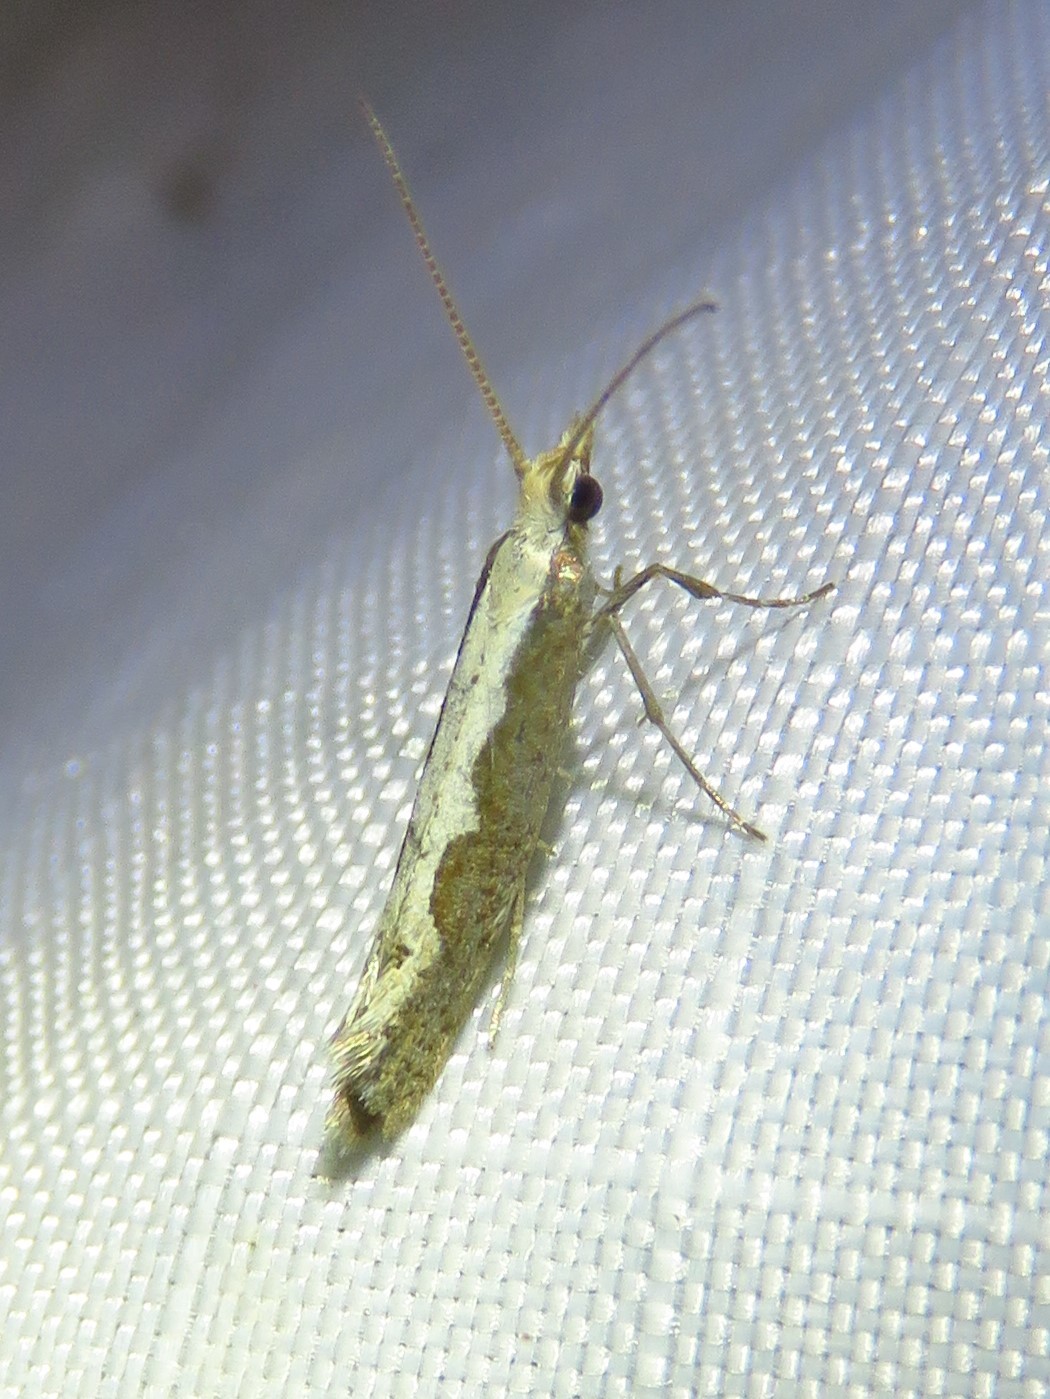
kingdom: Animalia
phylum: Arthropoda
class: Insecta
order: Lepidoptera
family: Plutellidae
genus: Plutella
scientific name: Plutella xylostella
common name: Diamond-back moth
